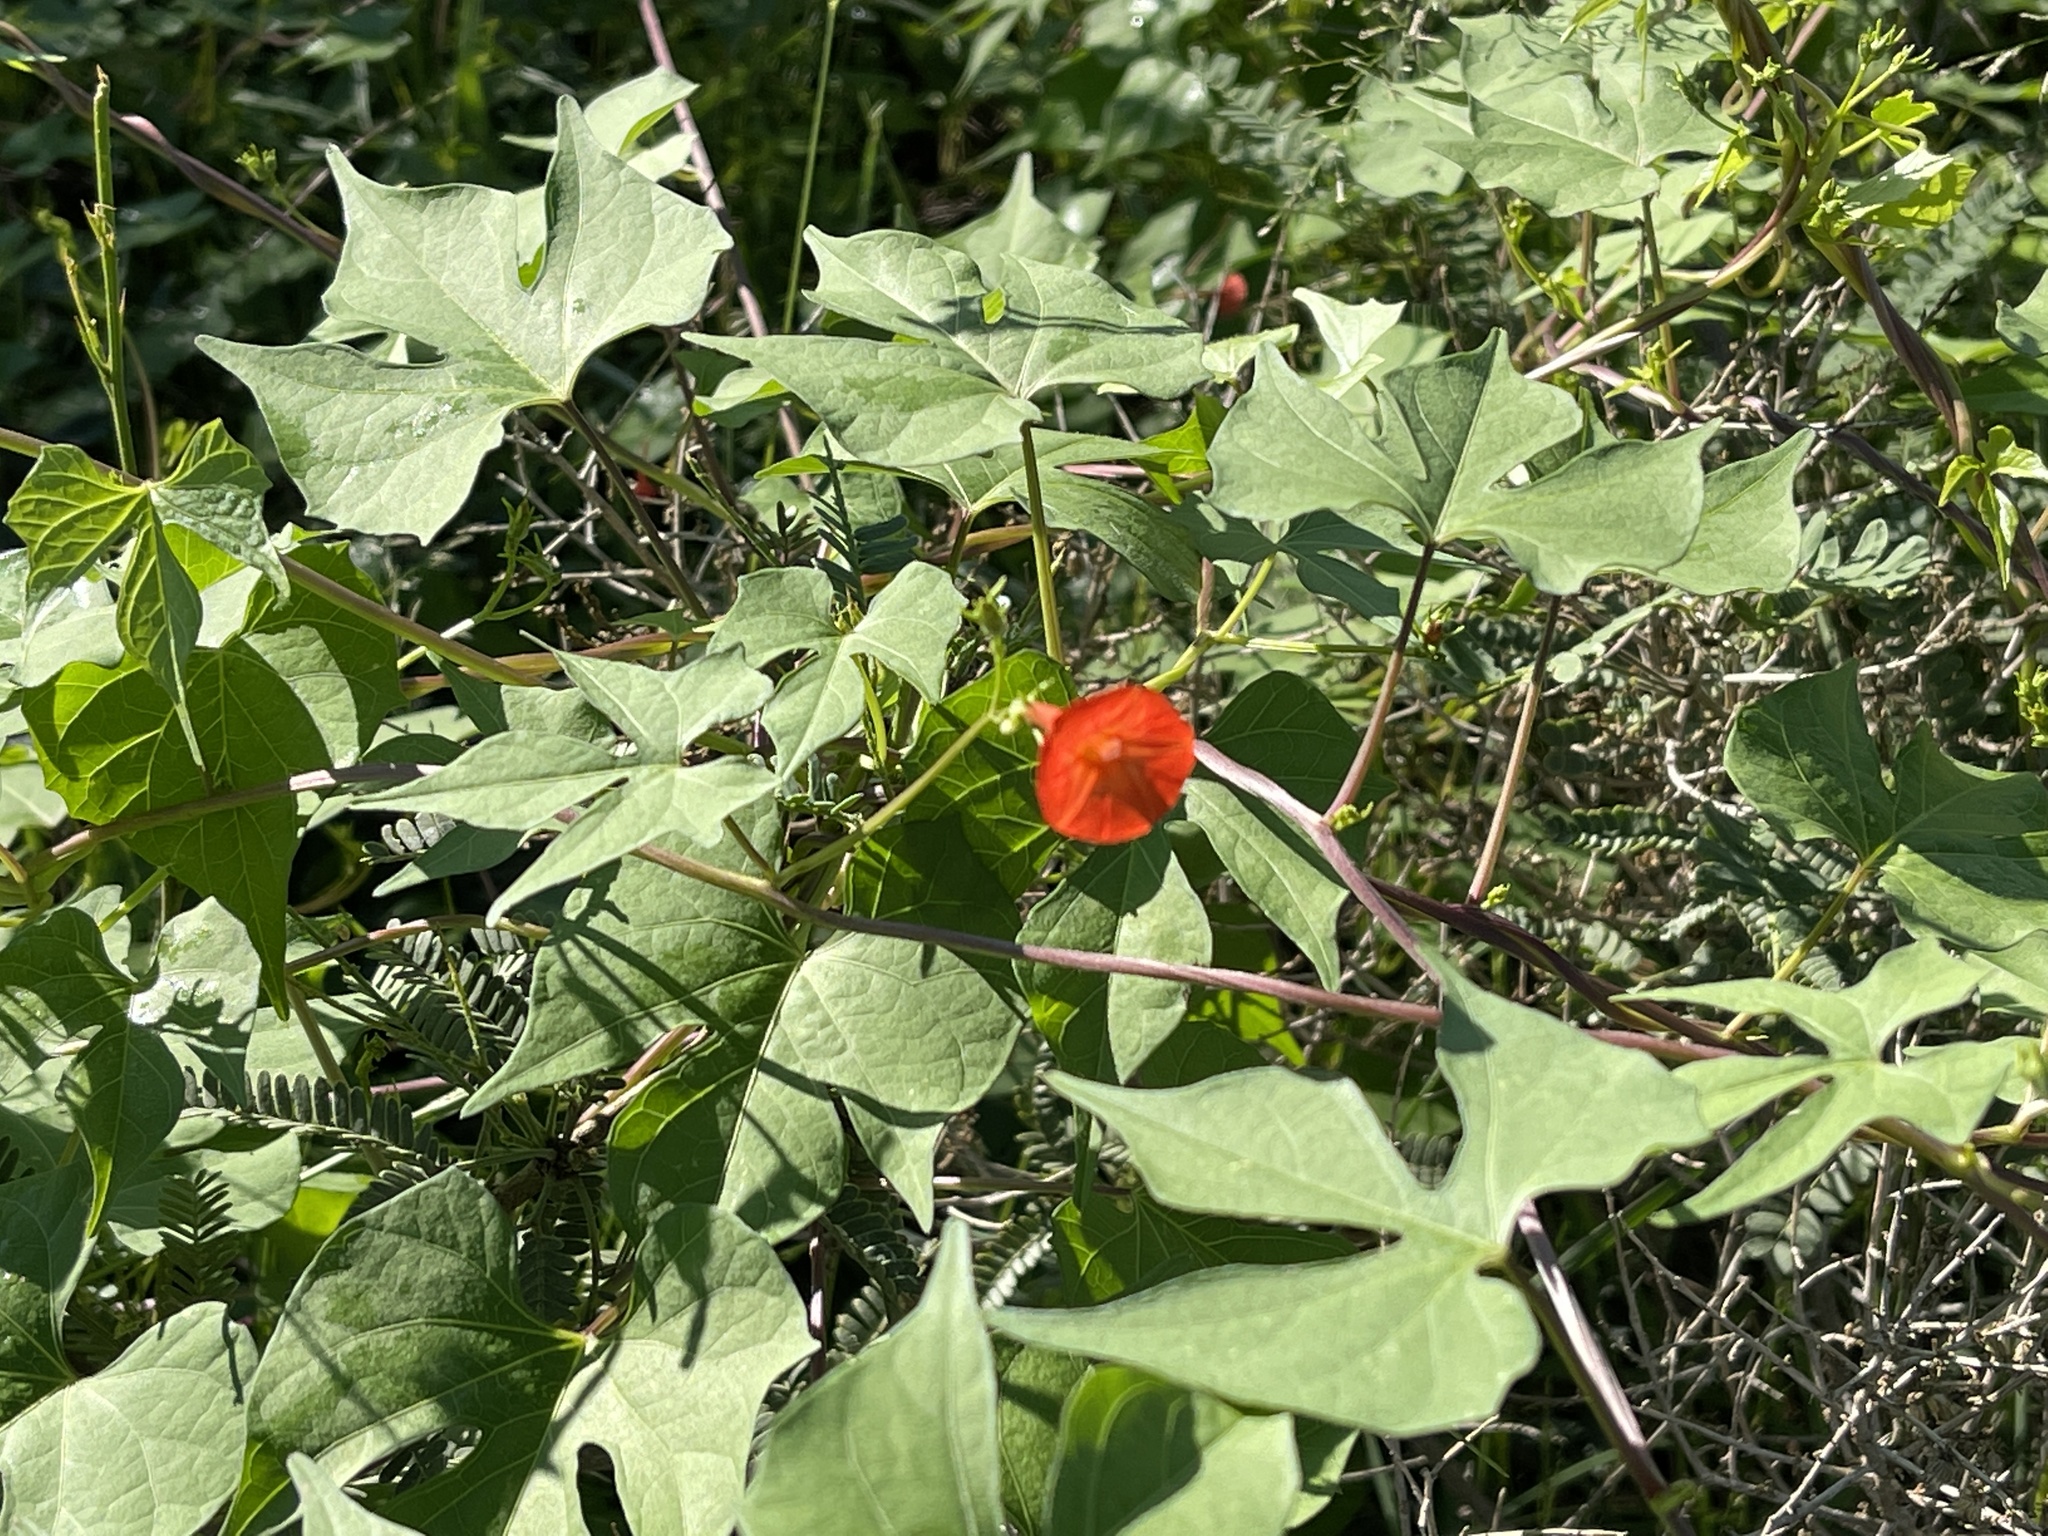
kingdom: Plantae
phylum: Tracheophyta
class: Magnoliopsida
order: Solanales
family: Convolvulaceae
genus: Ipomoea
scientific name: Ipomoea cristulata
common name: Trans-pecos morning-glory
